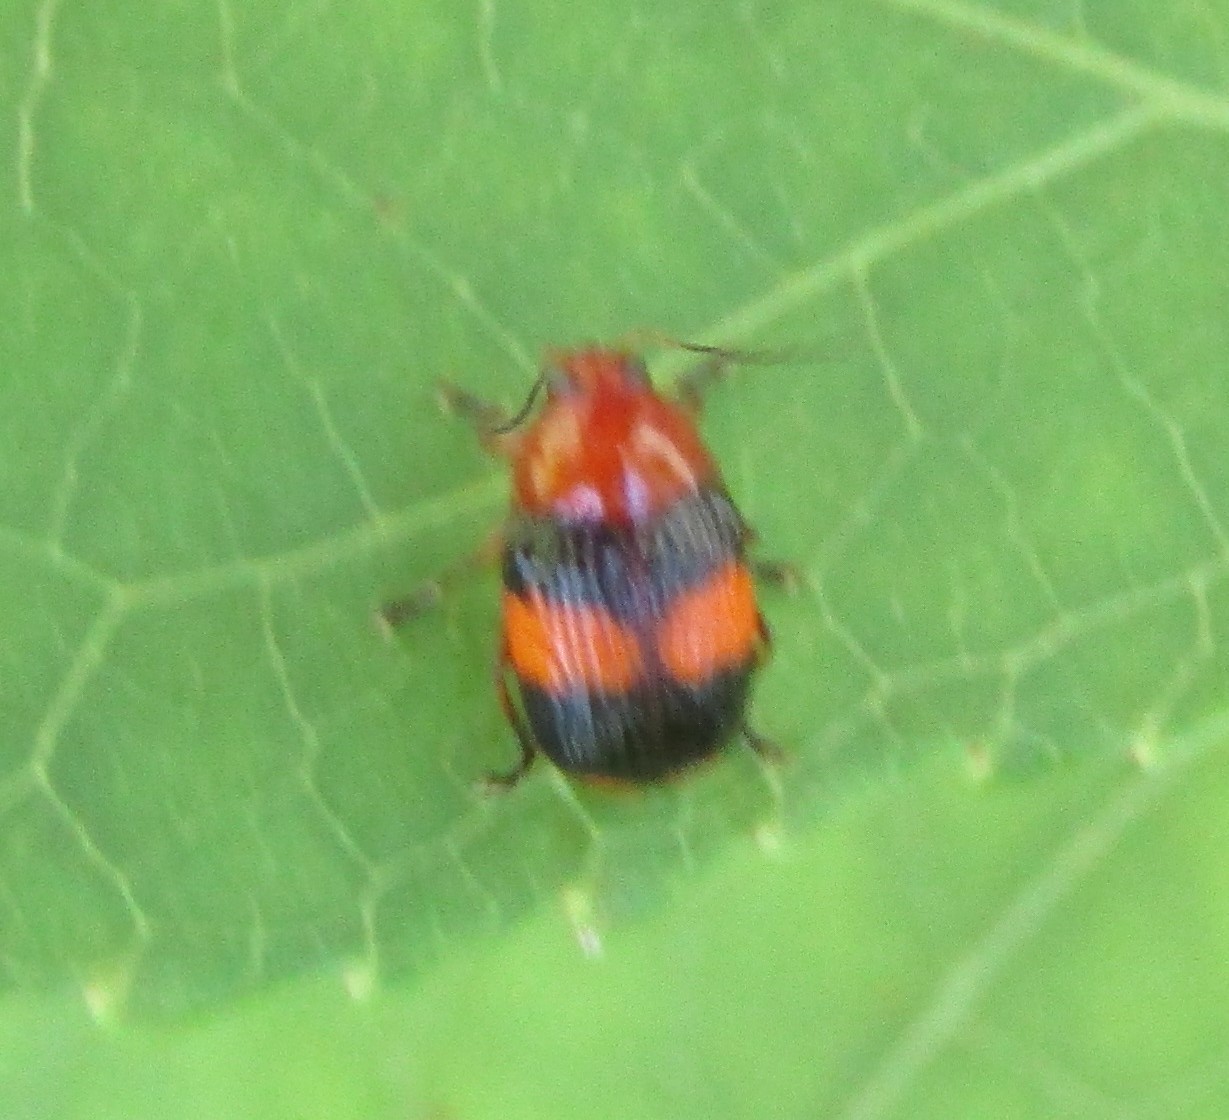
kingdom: Animalia
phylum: Arthropoda
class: Insecta
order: Coleoptera
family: Chrysomelidae
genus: Bassareus
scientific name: Bassareus detritus
